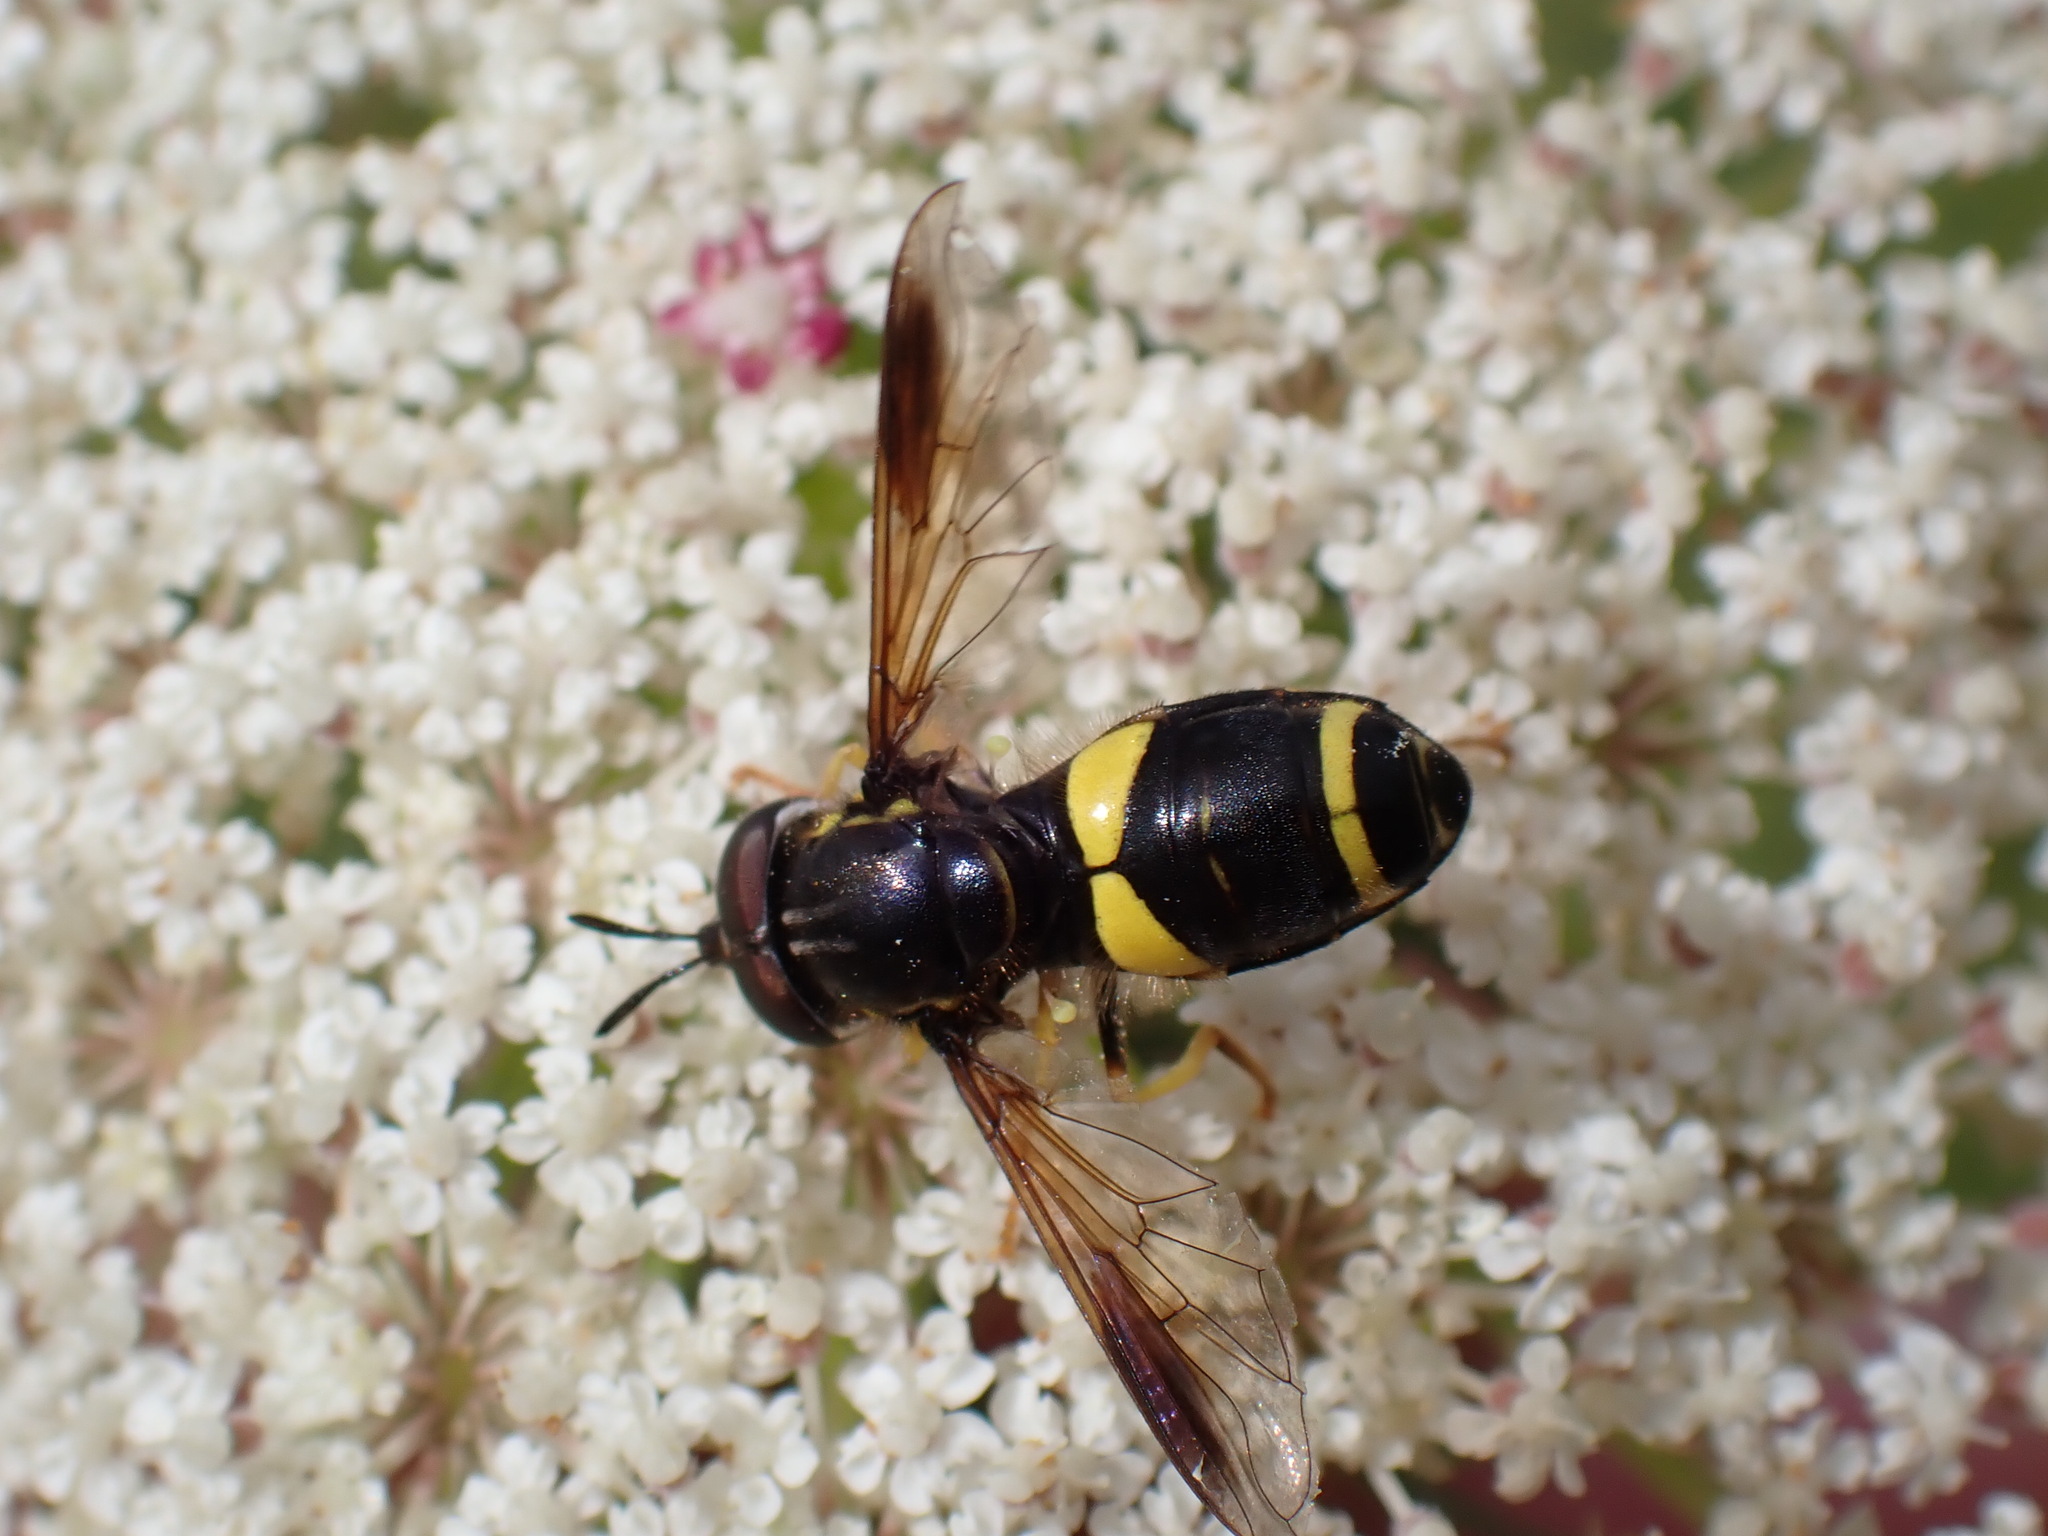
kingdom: Animalia
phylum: Arthropoda
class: Insecta
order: Diptera
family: Syrphidae
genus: Chrysotoxum
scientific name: Chrysotoxum bicincta
